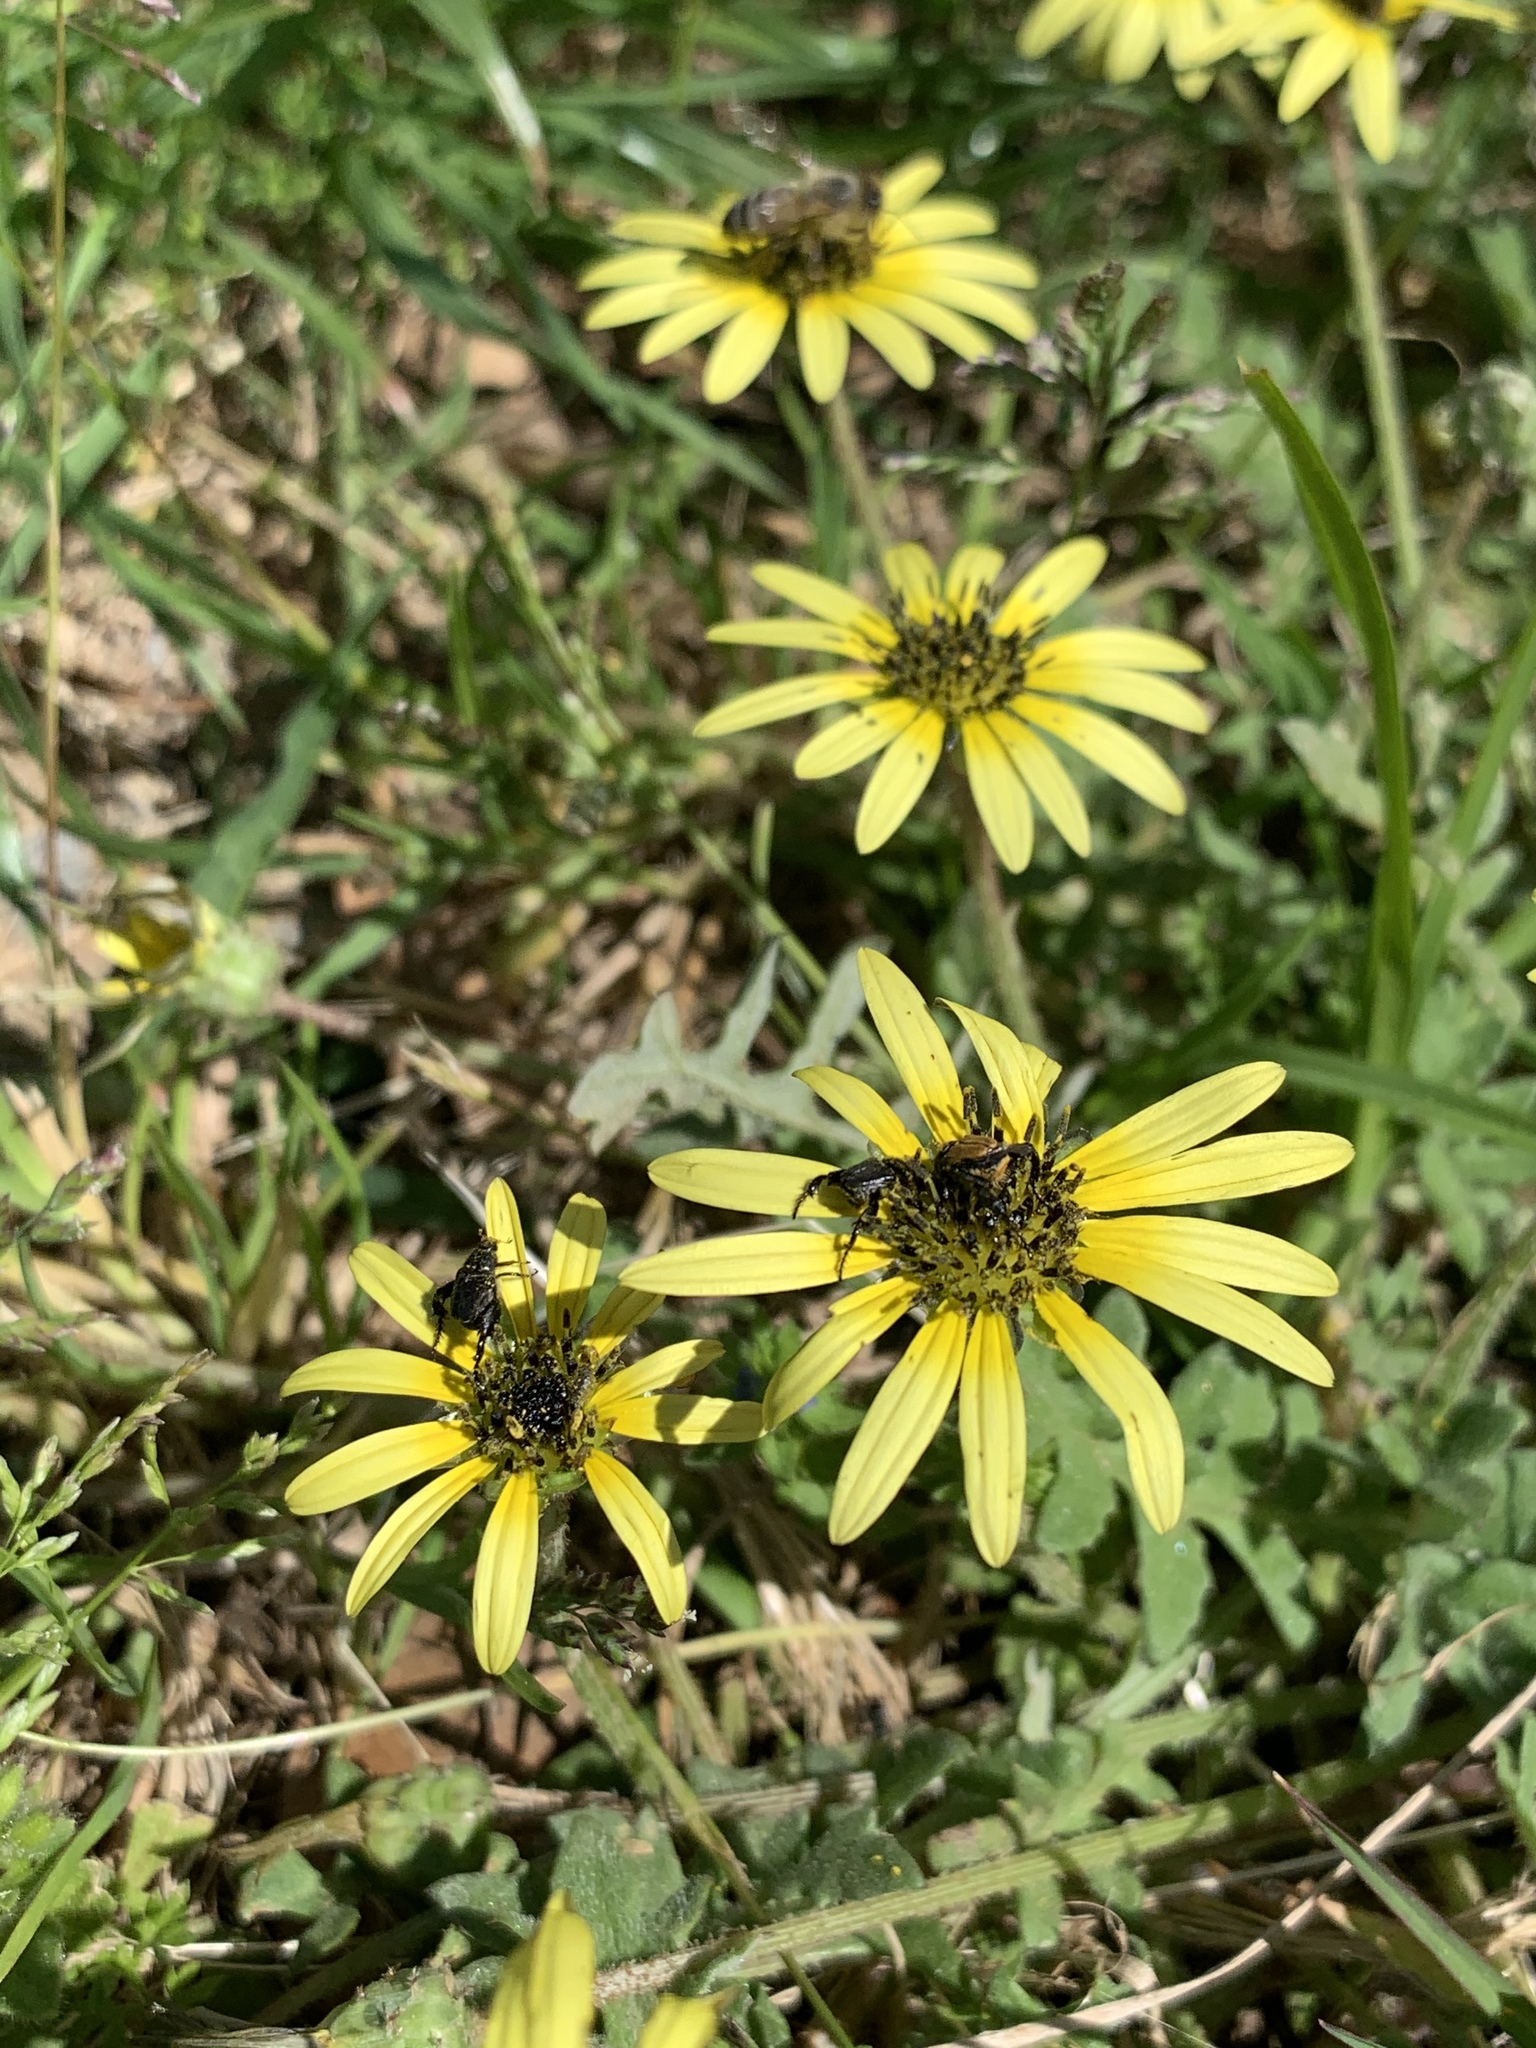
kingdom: Plantae
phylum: Tracheophyta
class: Magnoliopsida
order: Asterales
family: Asteraceae
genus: Arctotheca
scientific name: Arctotheca calendula
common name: Capeweed
